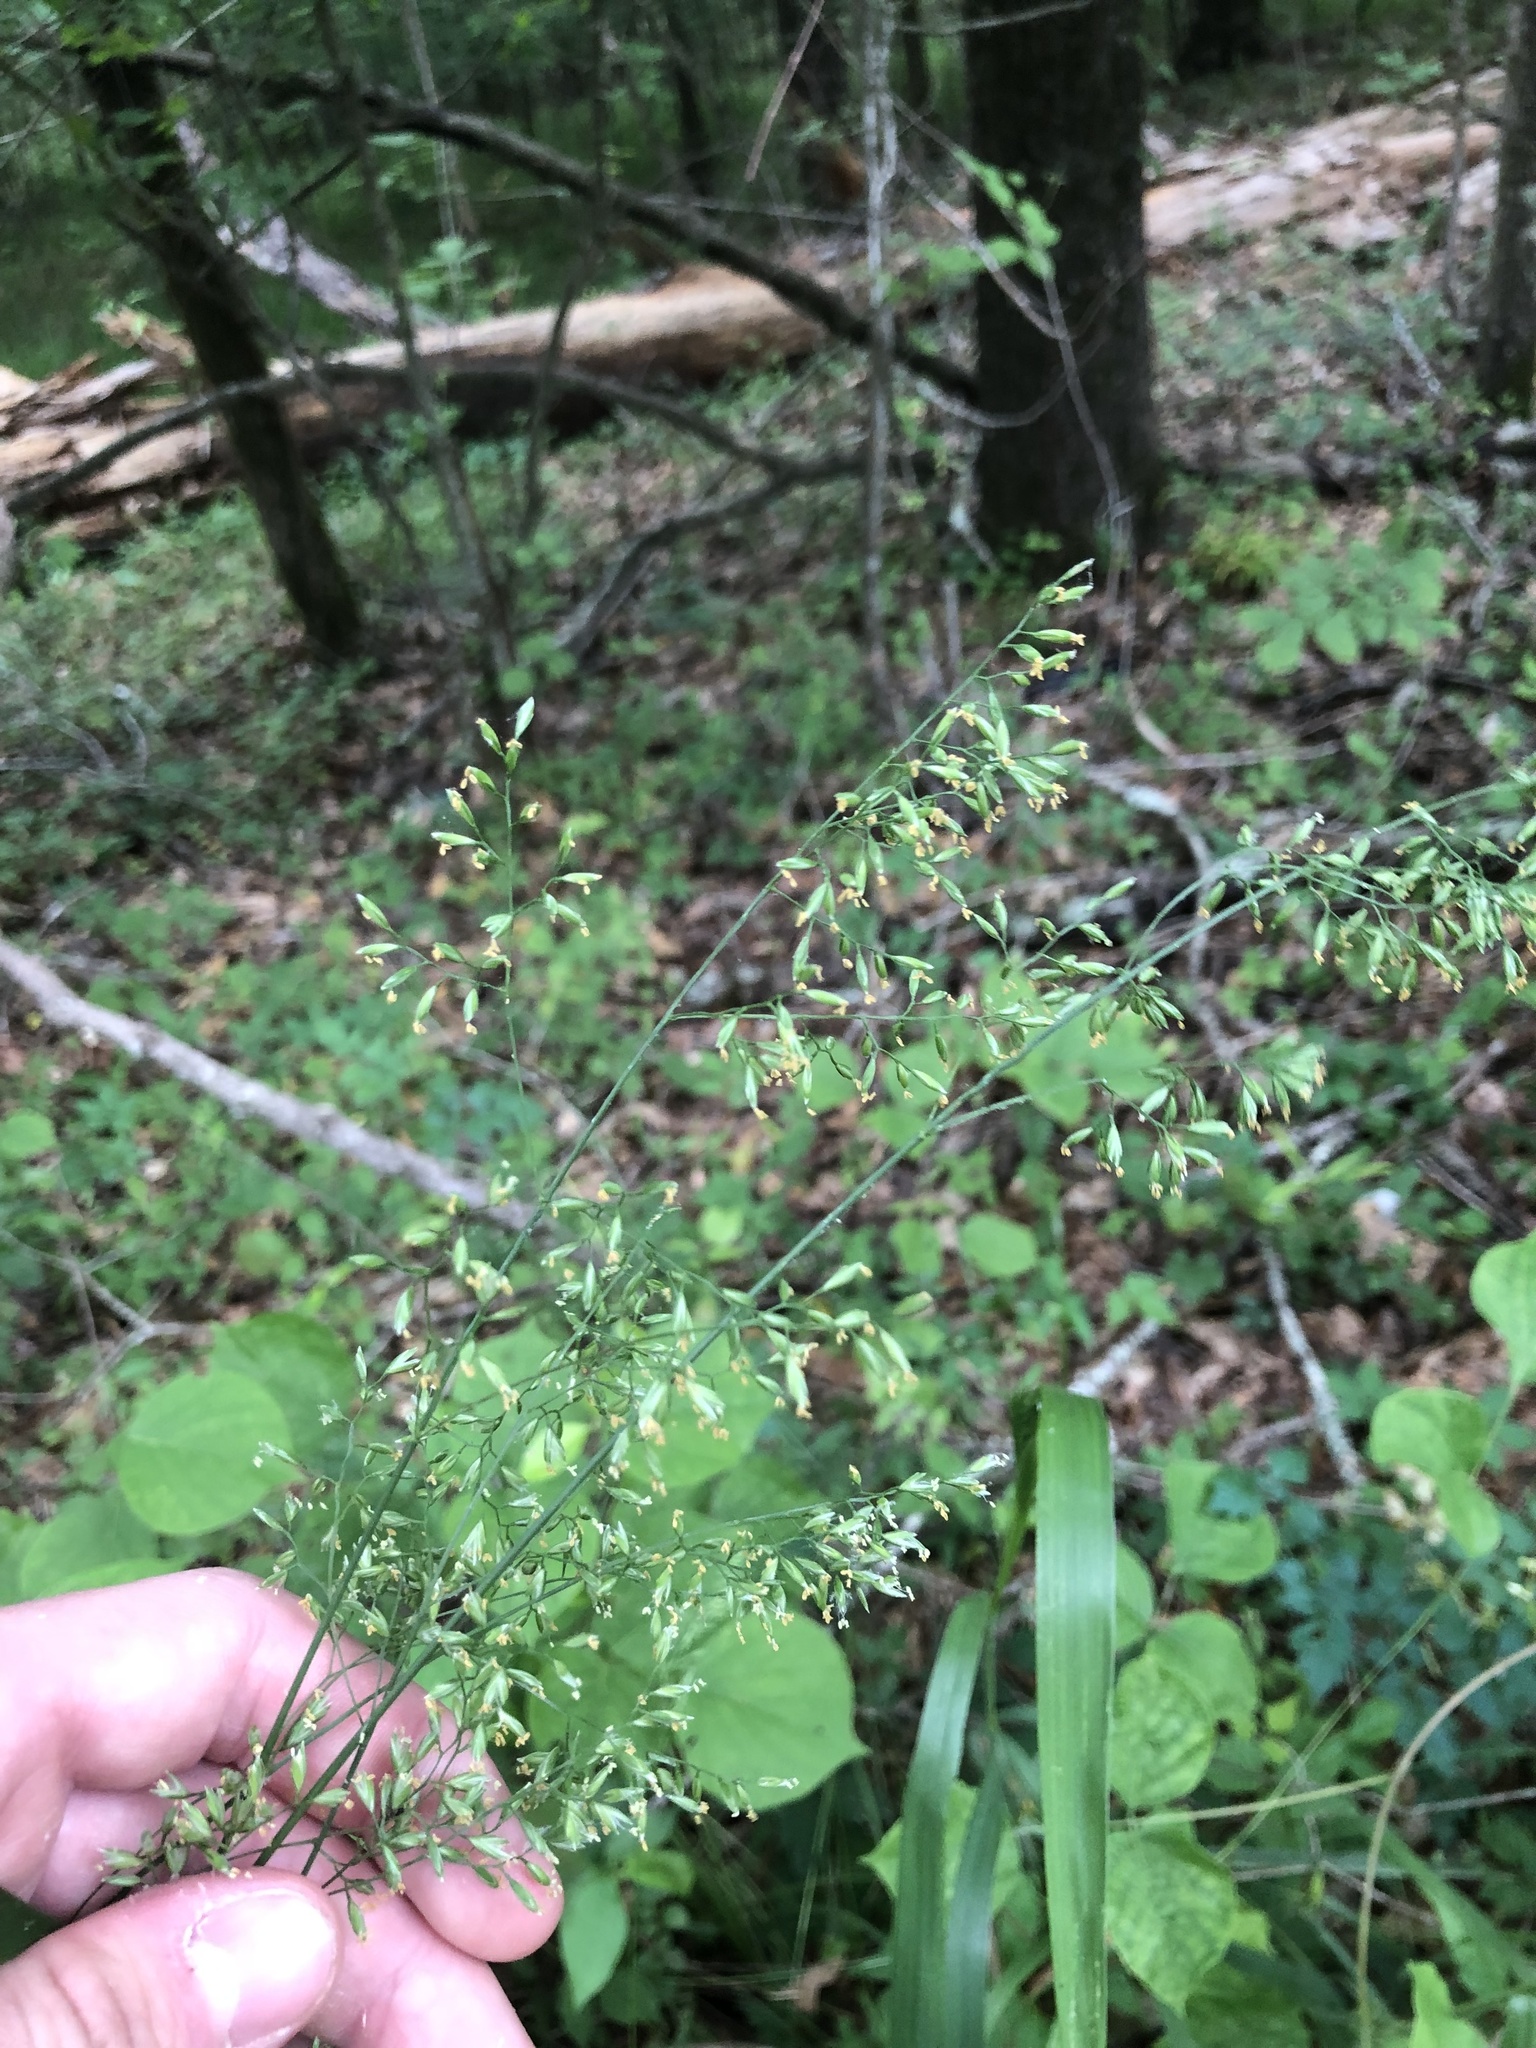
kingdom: Plantae
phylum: Tracheophyta
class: Liliopsida
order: Poales
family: Poaceae
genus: Festuca
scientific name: Festuca paradoxa
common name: Cluster fescue
